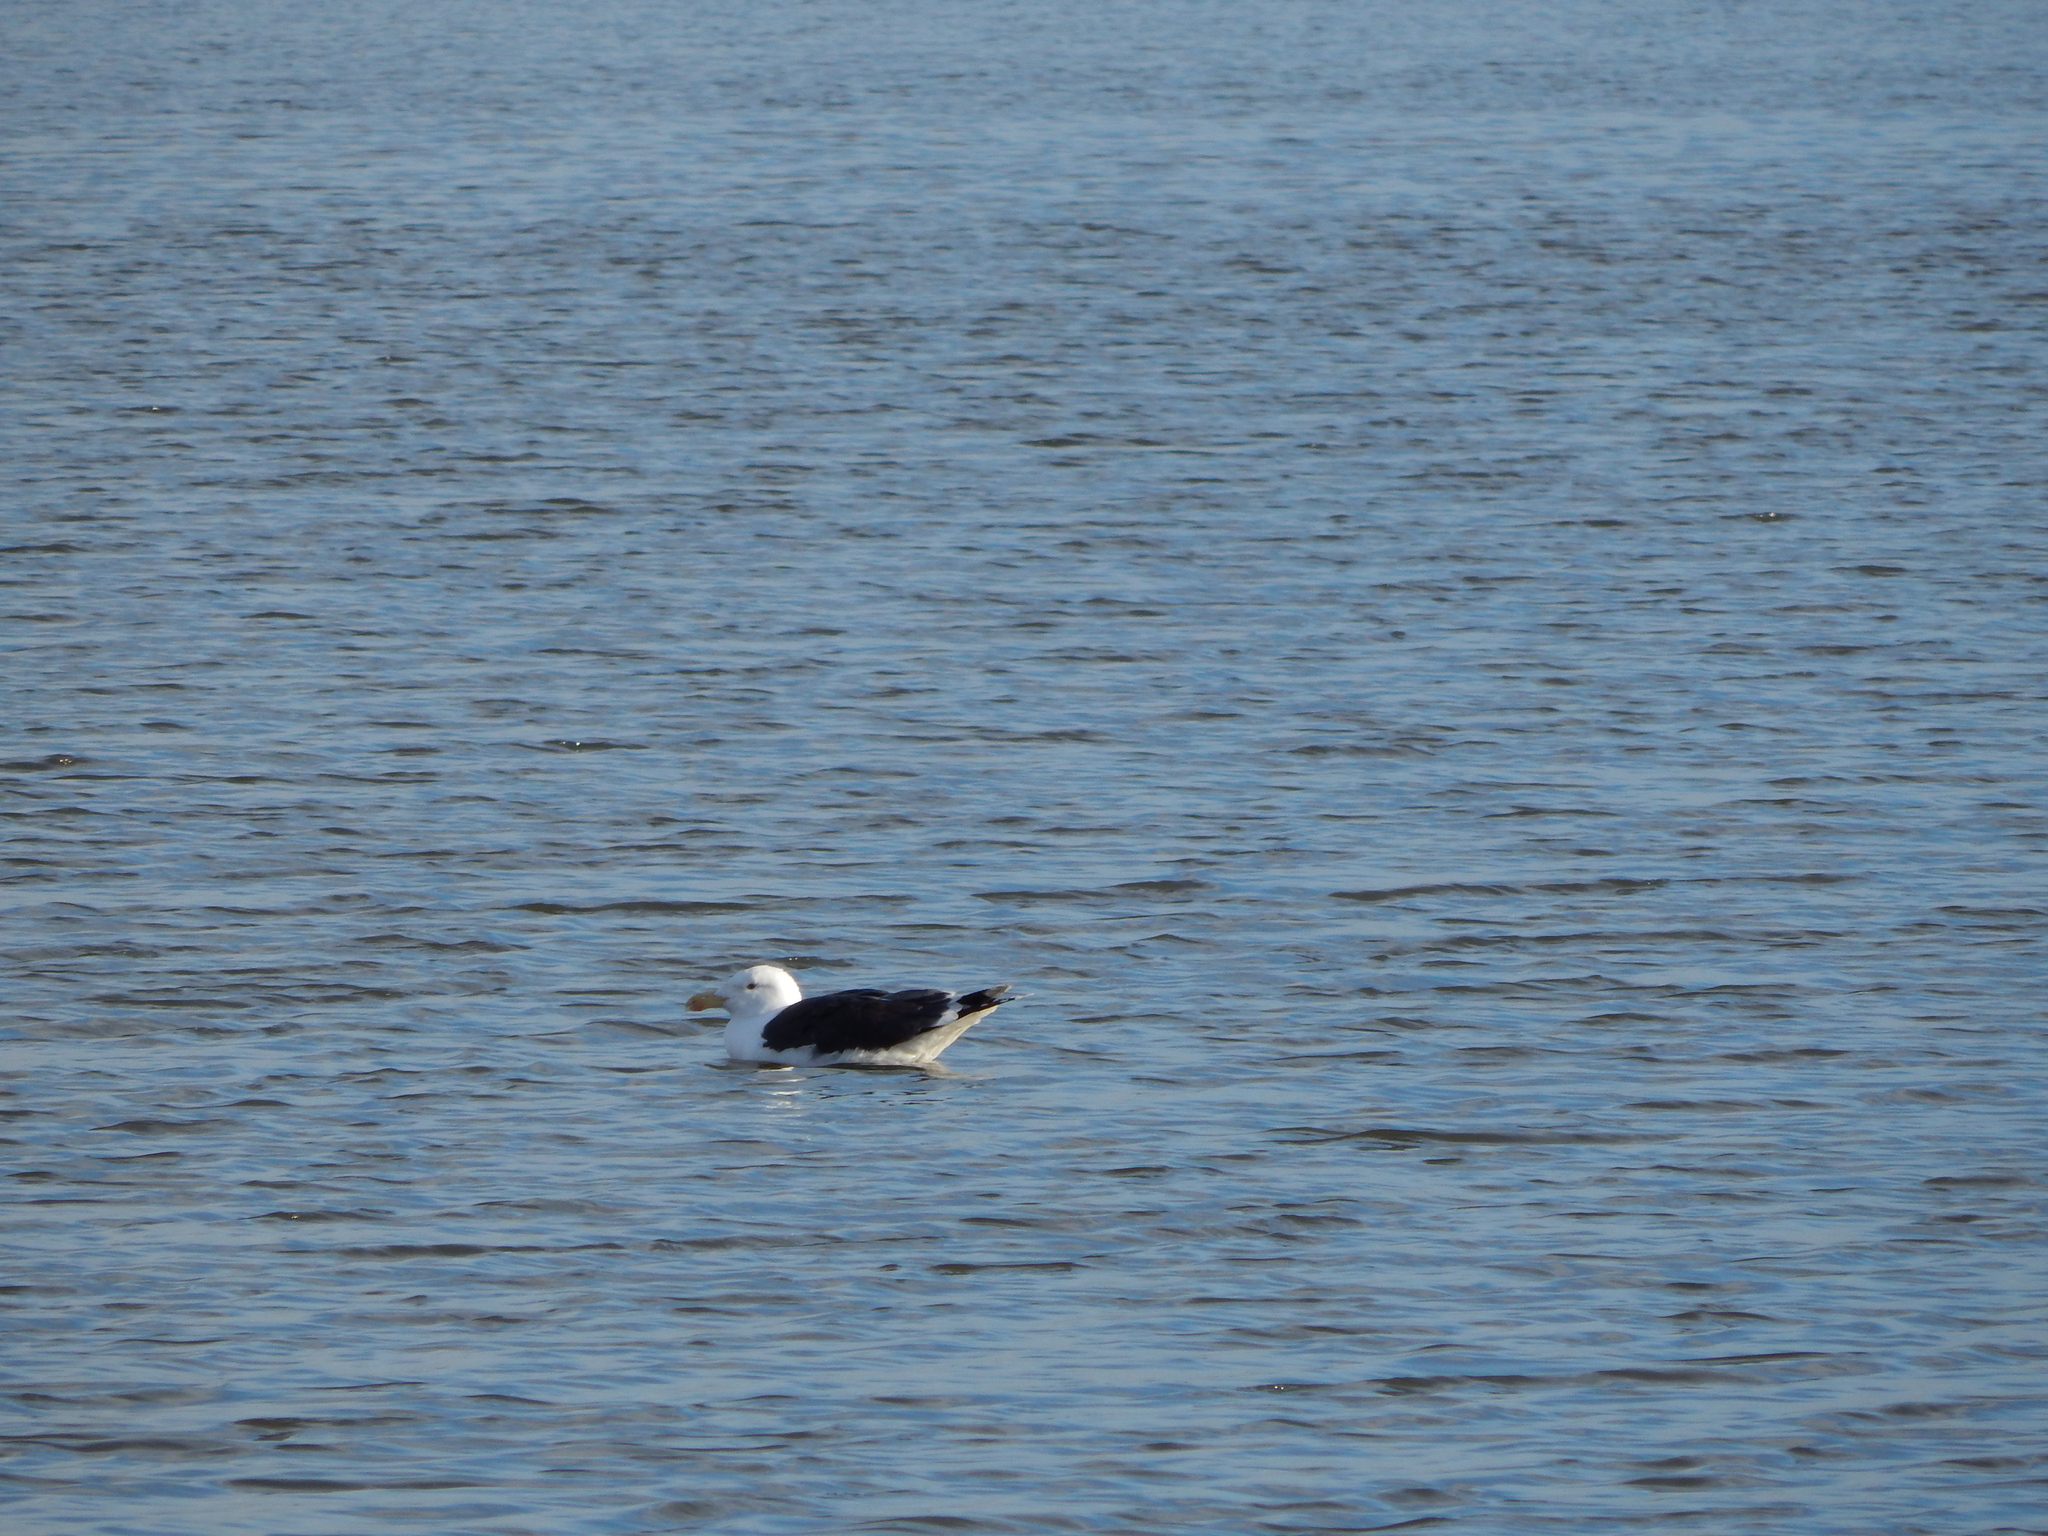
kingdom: Animalia
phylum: Chordata
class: Aves
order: Charadriiformes
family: Laridae
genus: Larus
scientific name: Larus marinus
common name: Great black-backed gull
